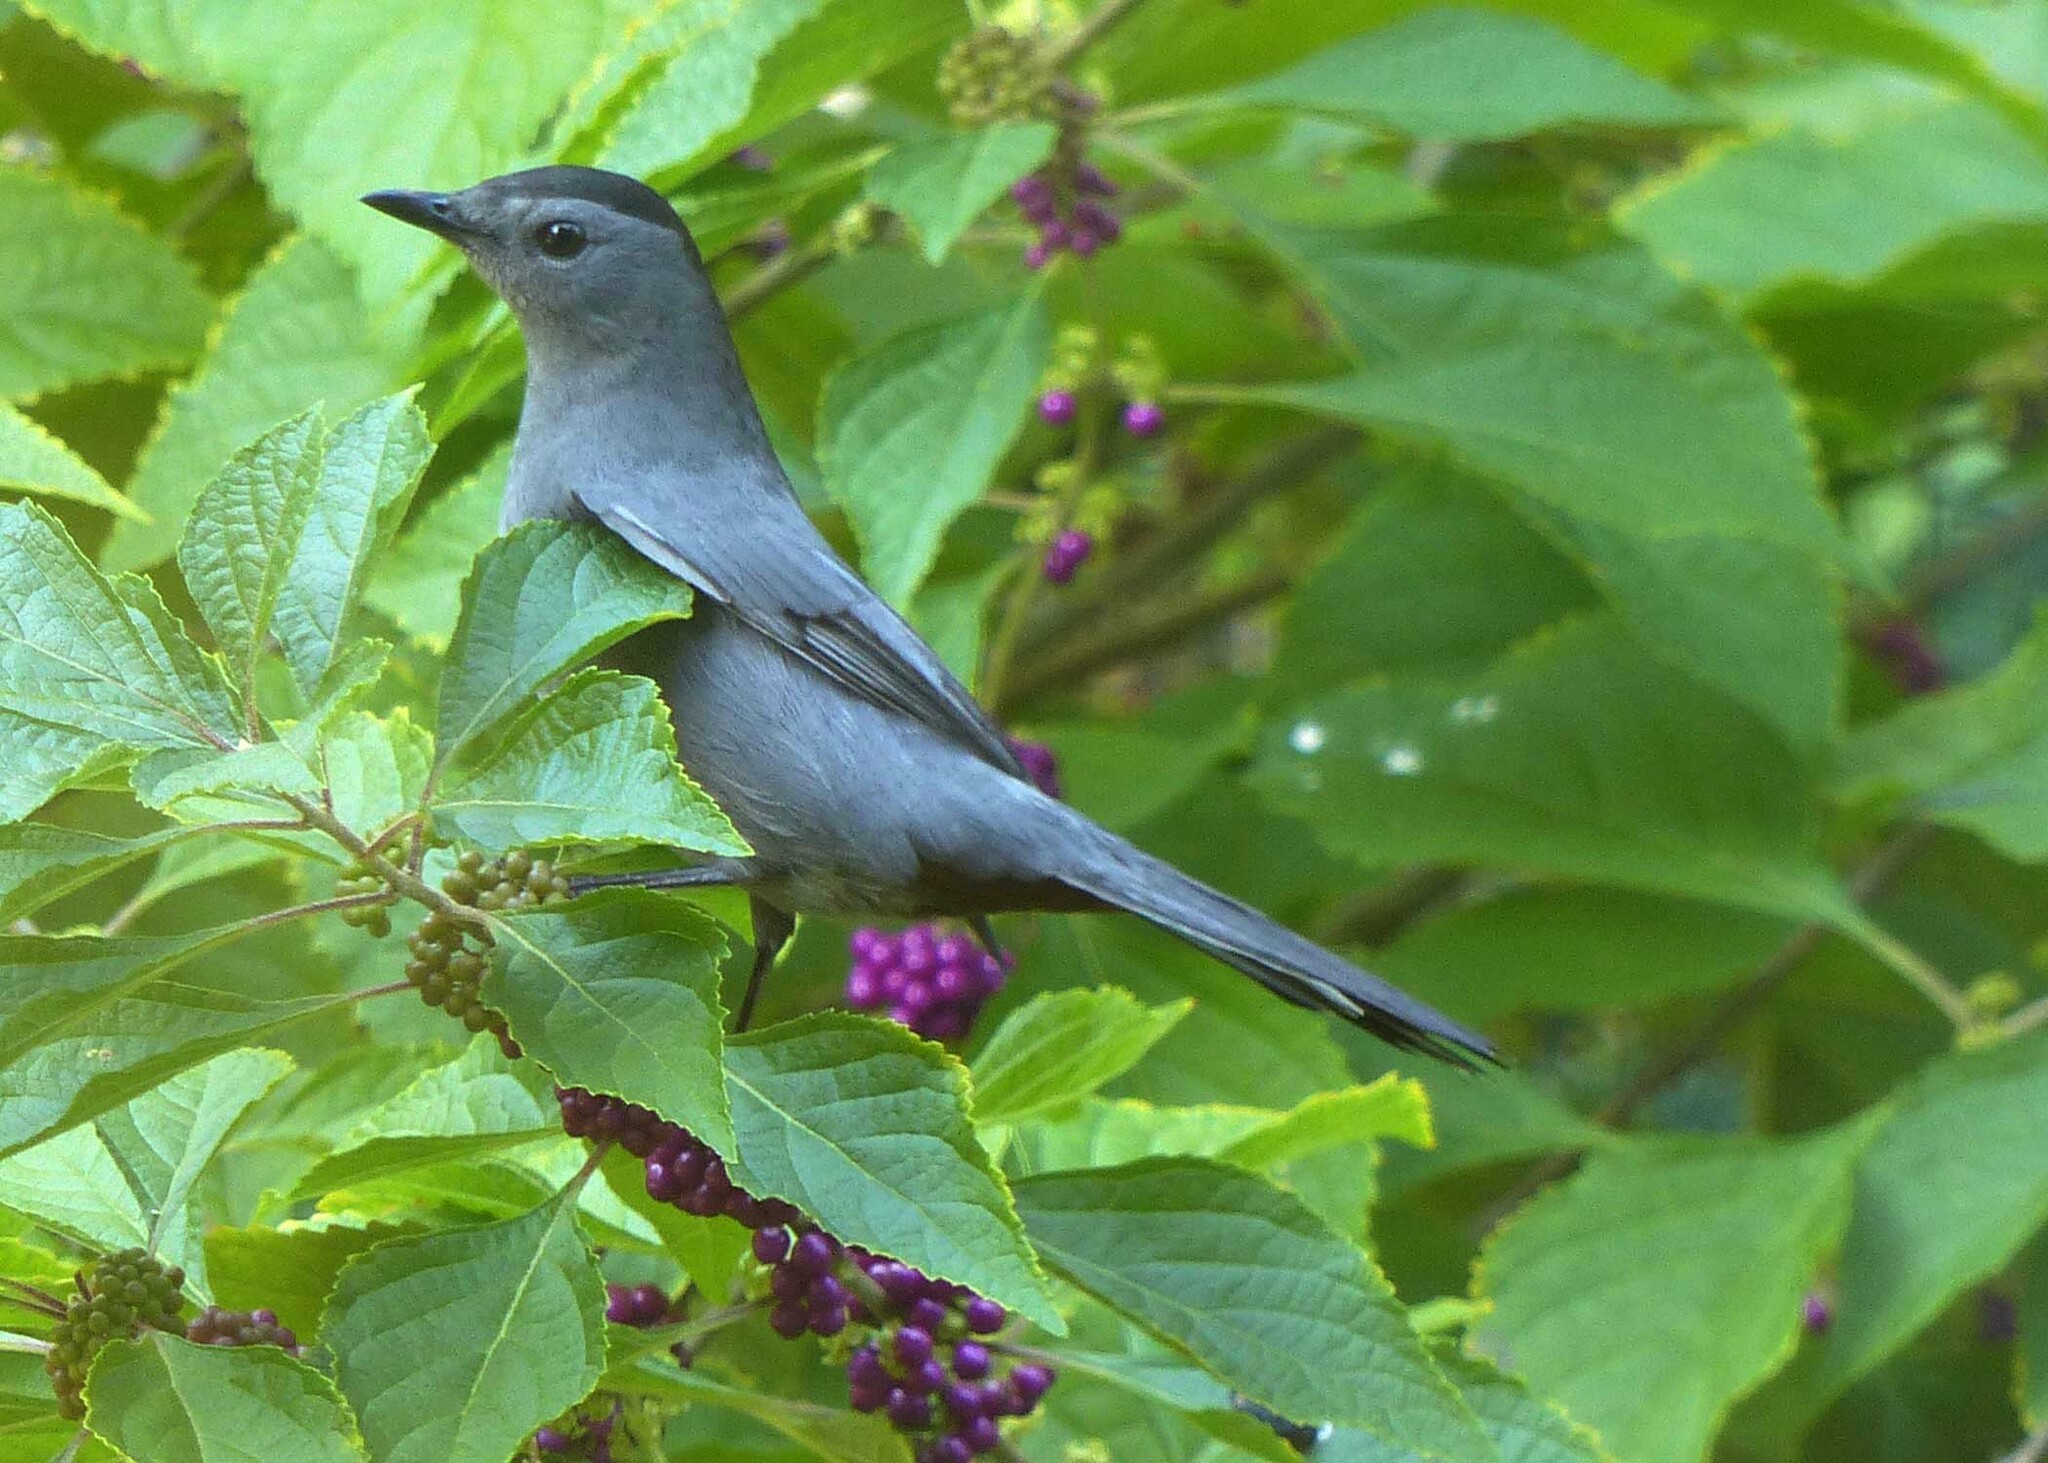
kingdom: Animalia
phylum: Chordata
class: Aves
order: Passeriformes
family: Mimidae
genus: Dumetella
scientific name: Dumetella carolinensis
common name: Gray catbird
